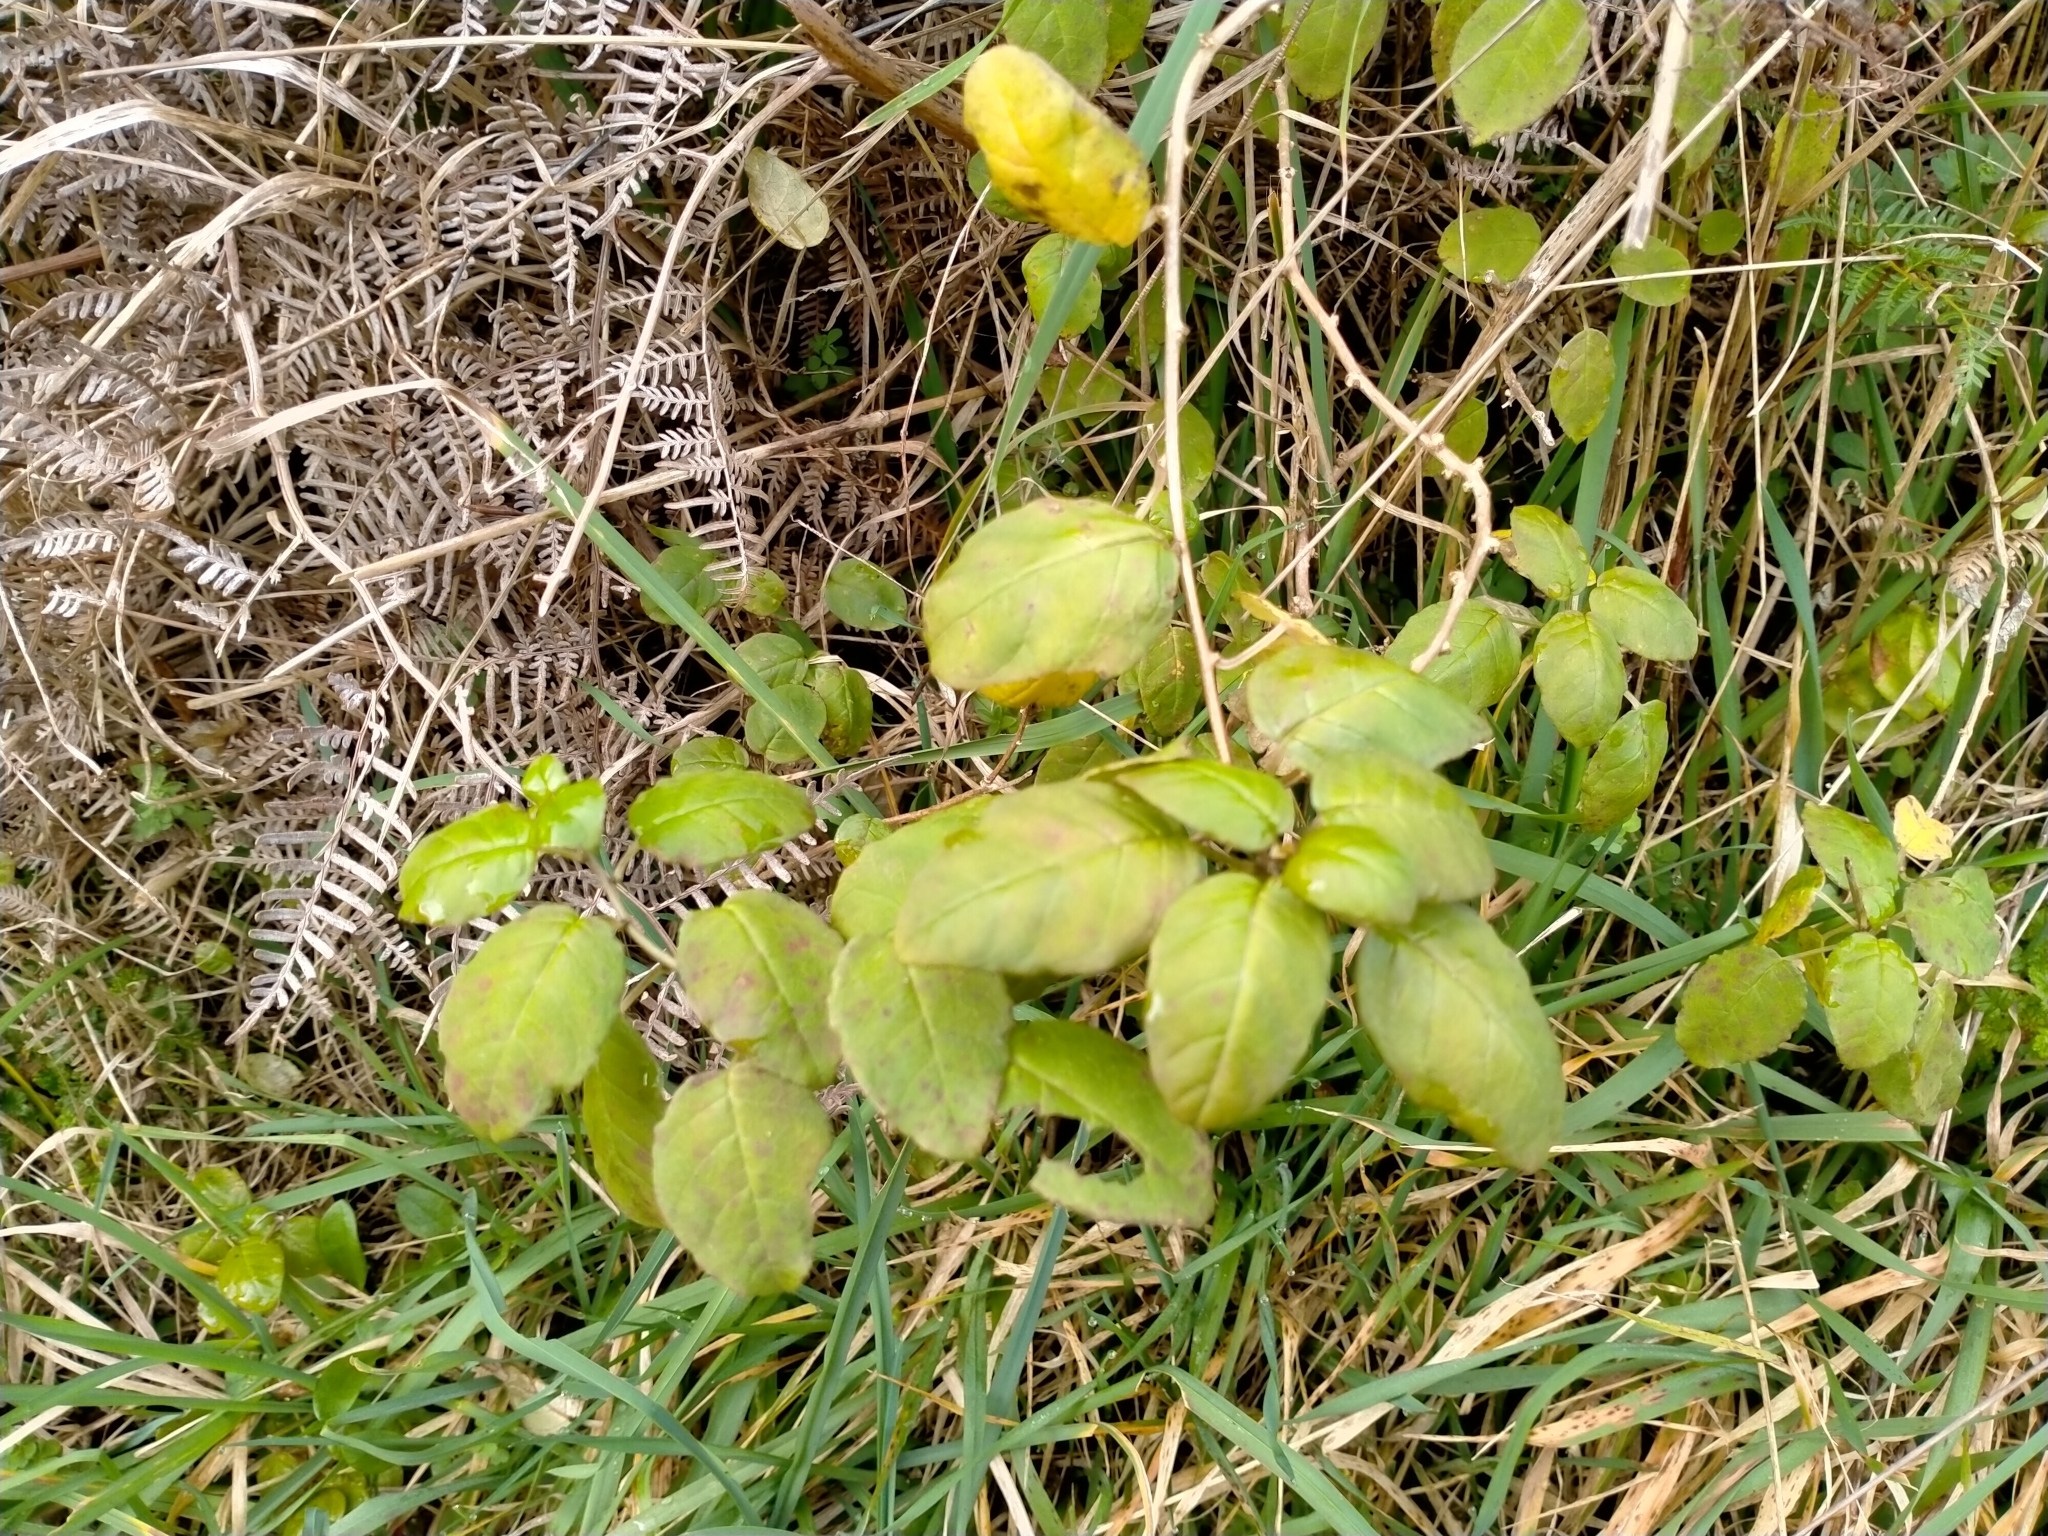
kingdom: Plantae
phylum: Tracheophyta
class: Magnoliopsida
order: Myrtales
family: Onagraceae
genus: Fuchsia
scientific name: Fuchsia perscandens
